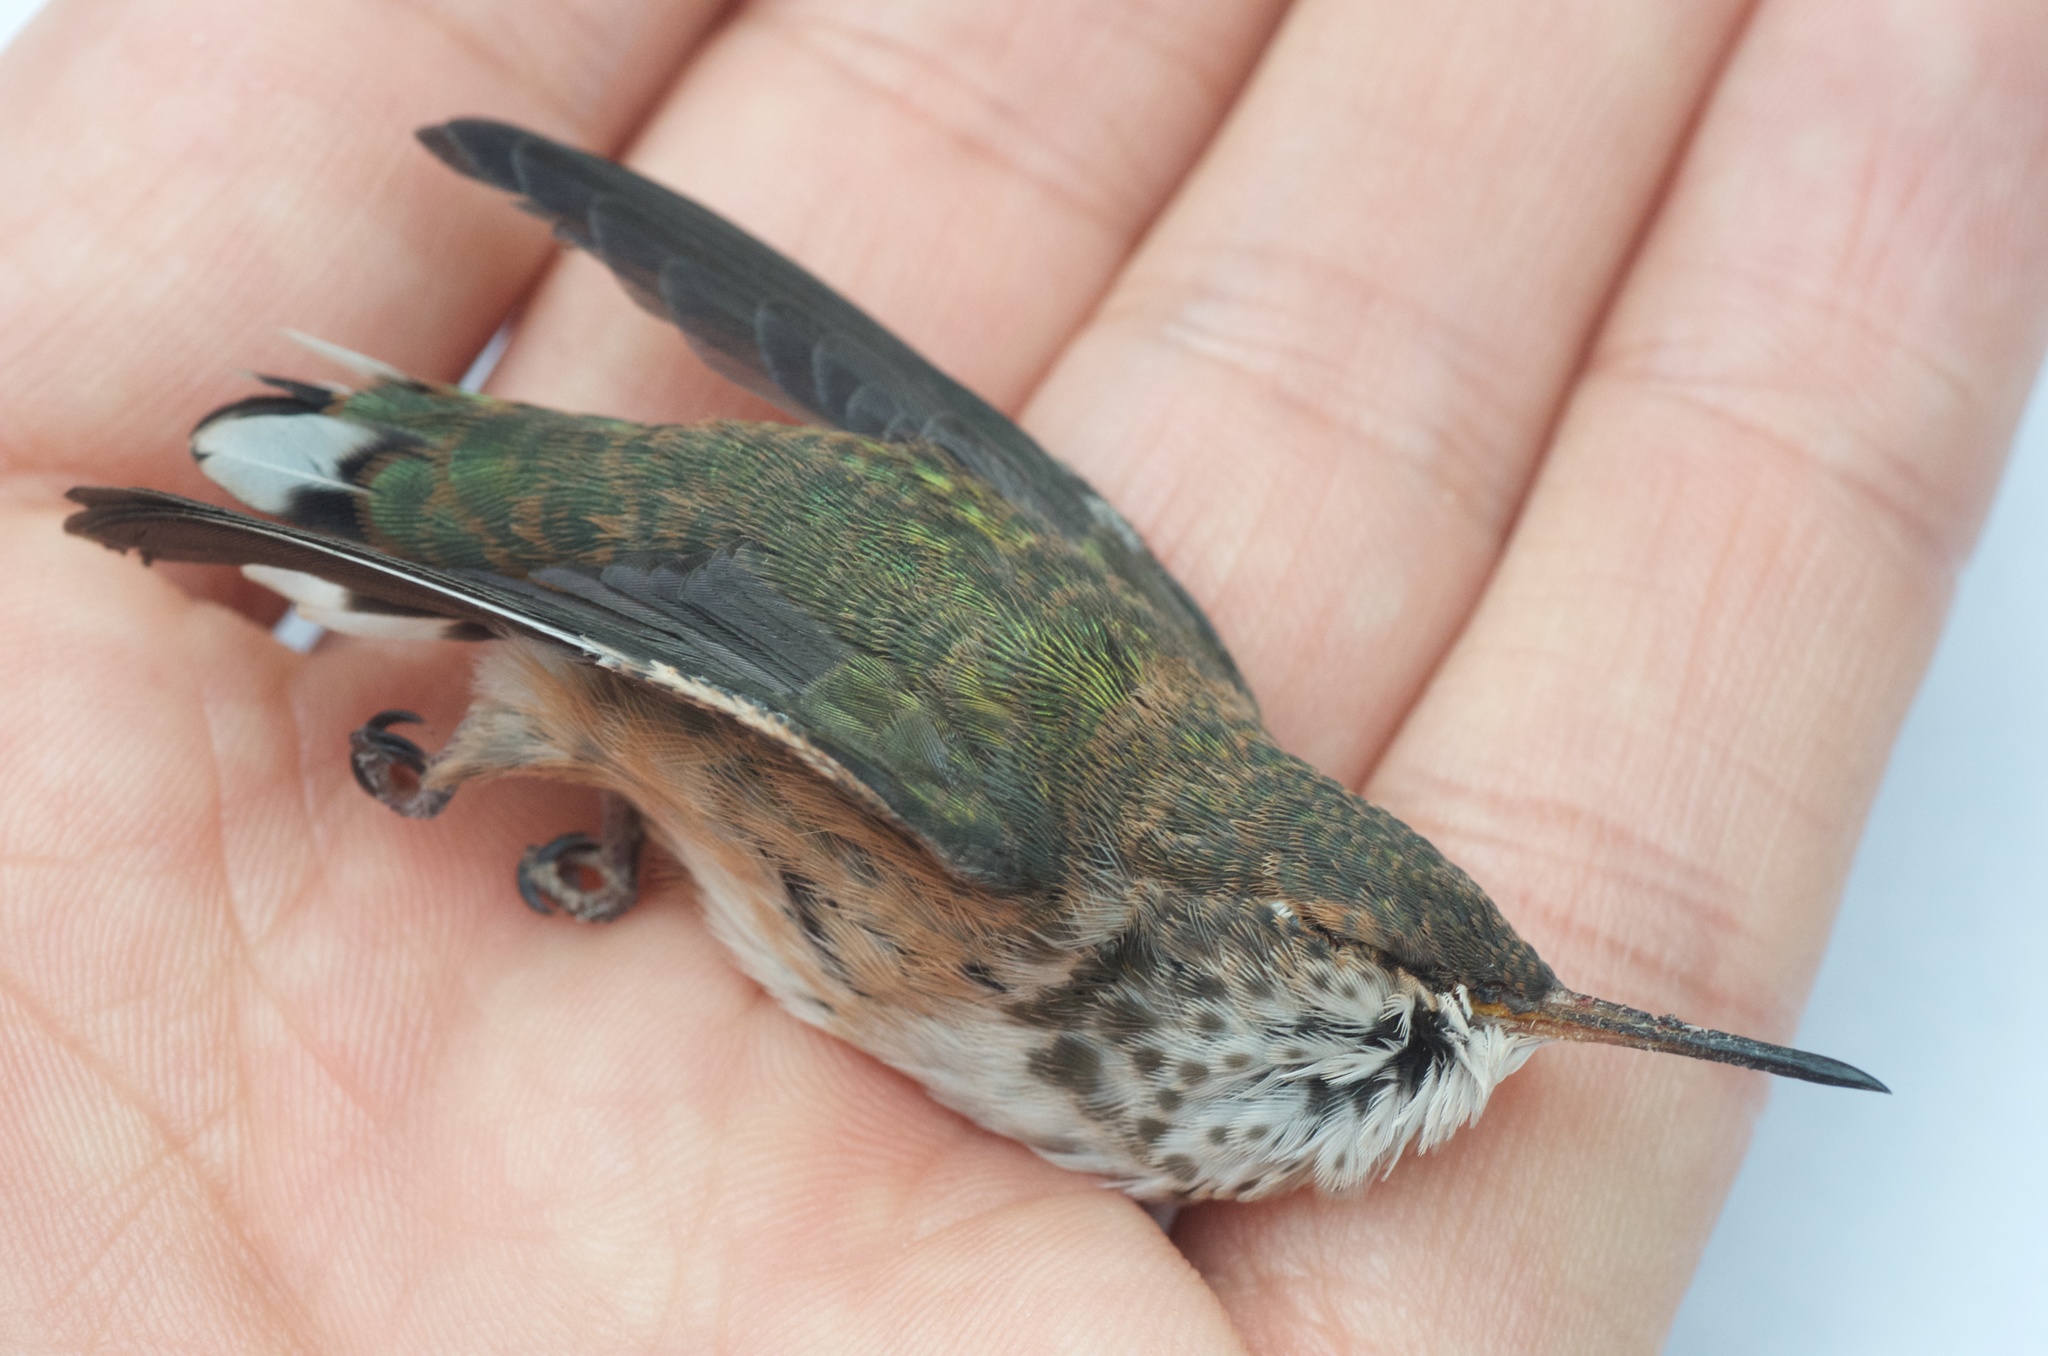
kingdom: Animalia
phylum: Chordata
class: Aves
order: Apodiformes
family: Trochilidae
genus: Selasphorus
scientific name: Selasphorus sasin
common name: Allen's hummingbird
